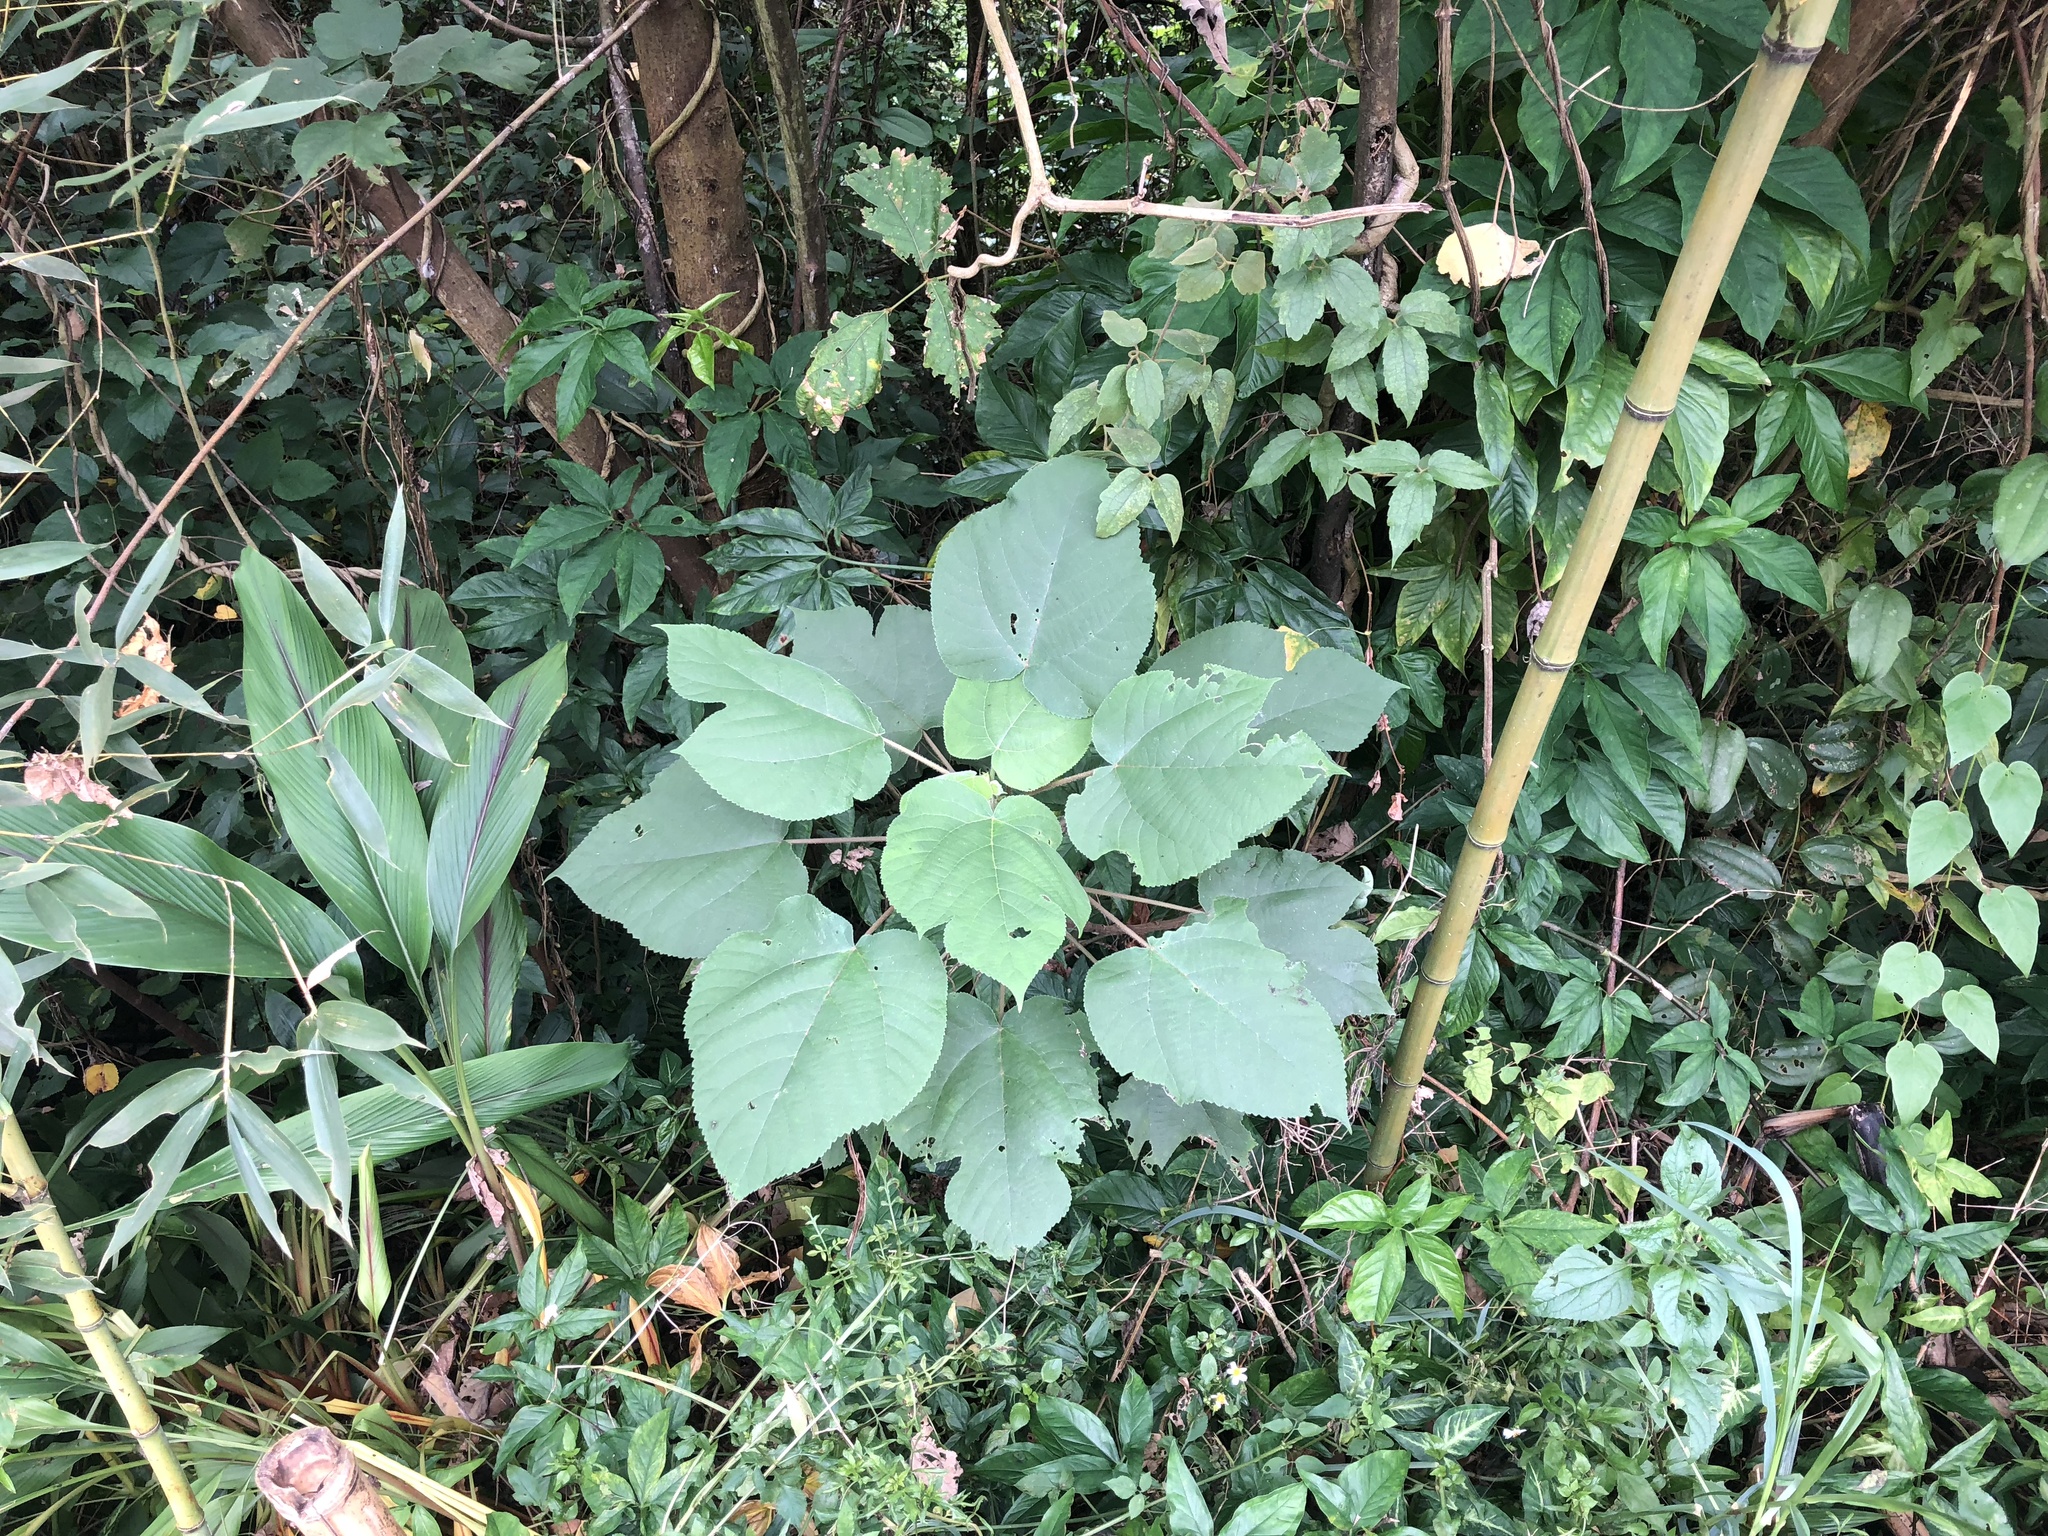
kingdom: Plantae
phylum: Tracheophyta
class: Magnoliopsida
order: Rosales
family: Moraceae
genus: Broussonetia
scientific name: Broussonetia papyrifera
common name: Paper mulberry
